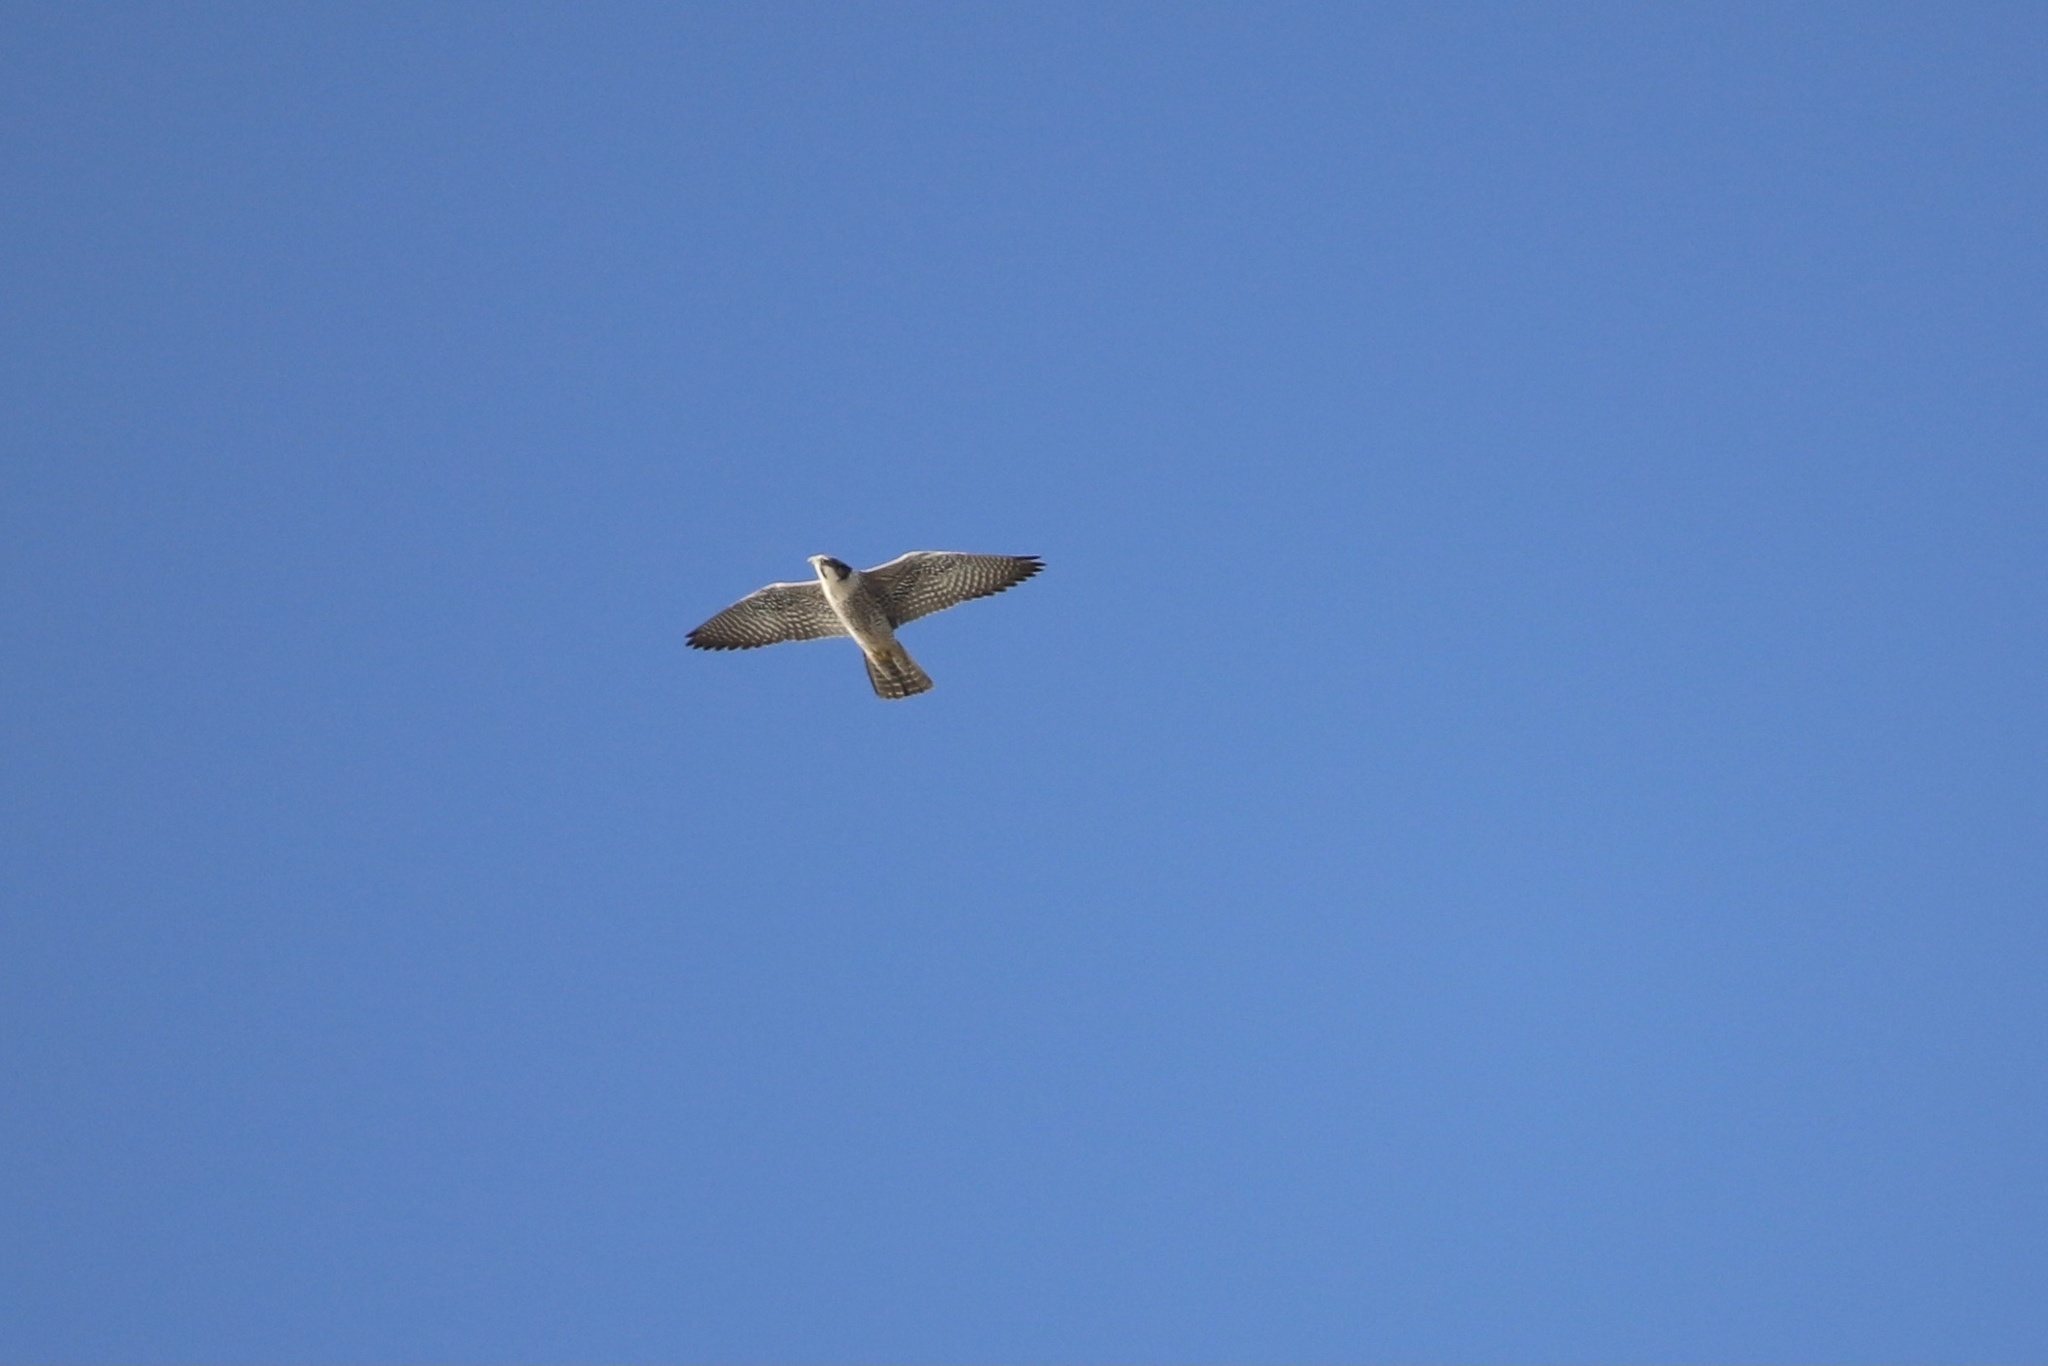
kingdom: Animalia
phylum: Chordata
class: Aves
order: Falconiformes
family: Falconidae
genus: Falco
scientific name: Falco peregrinus
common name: Peregrine falcon
